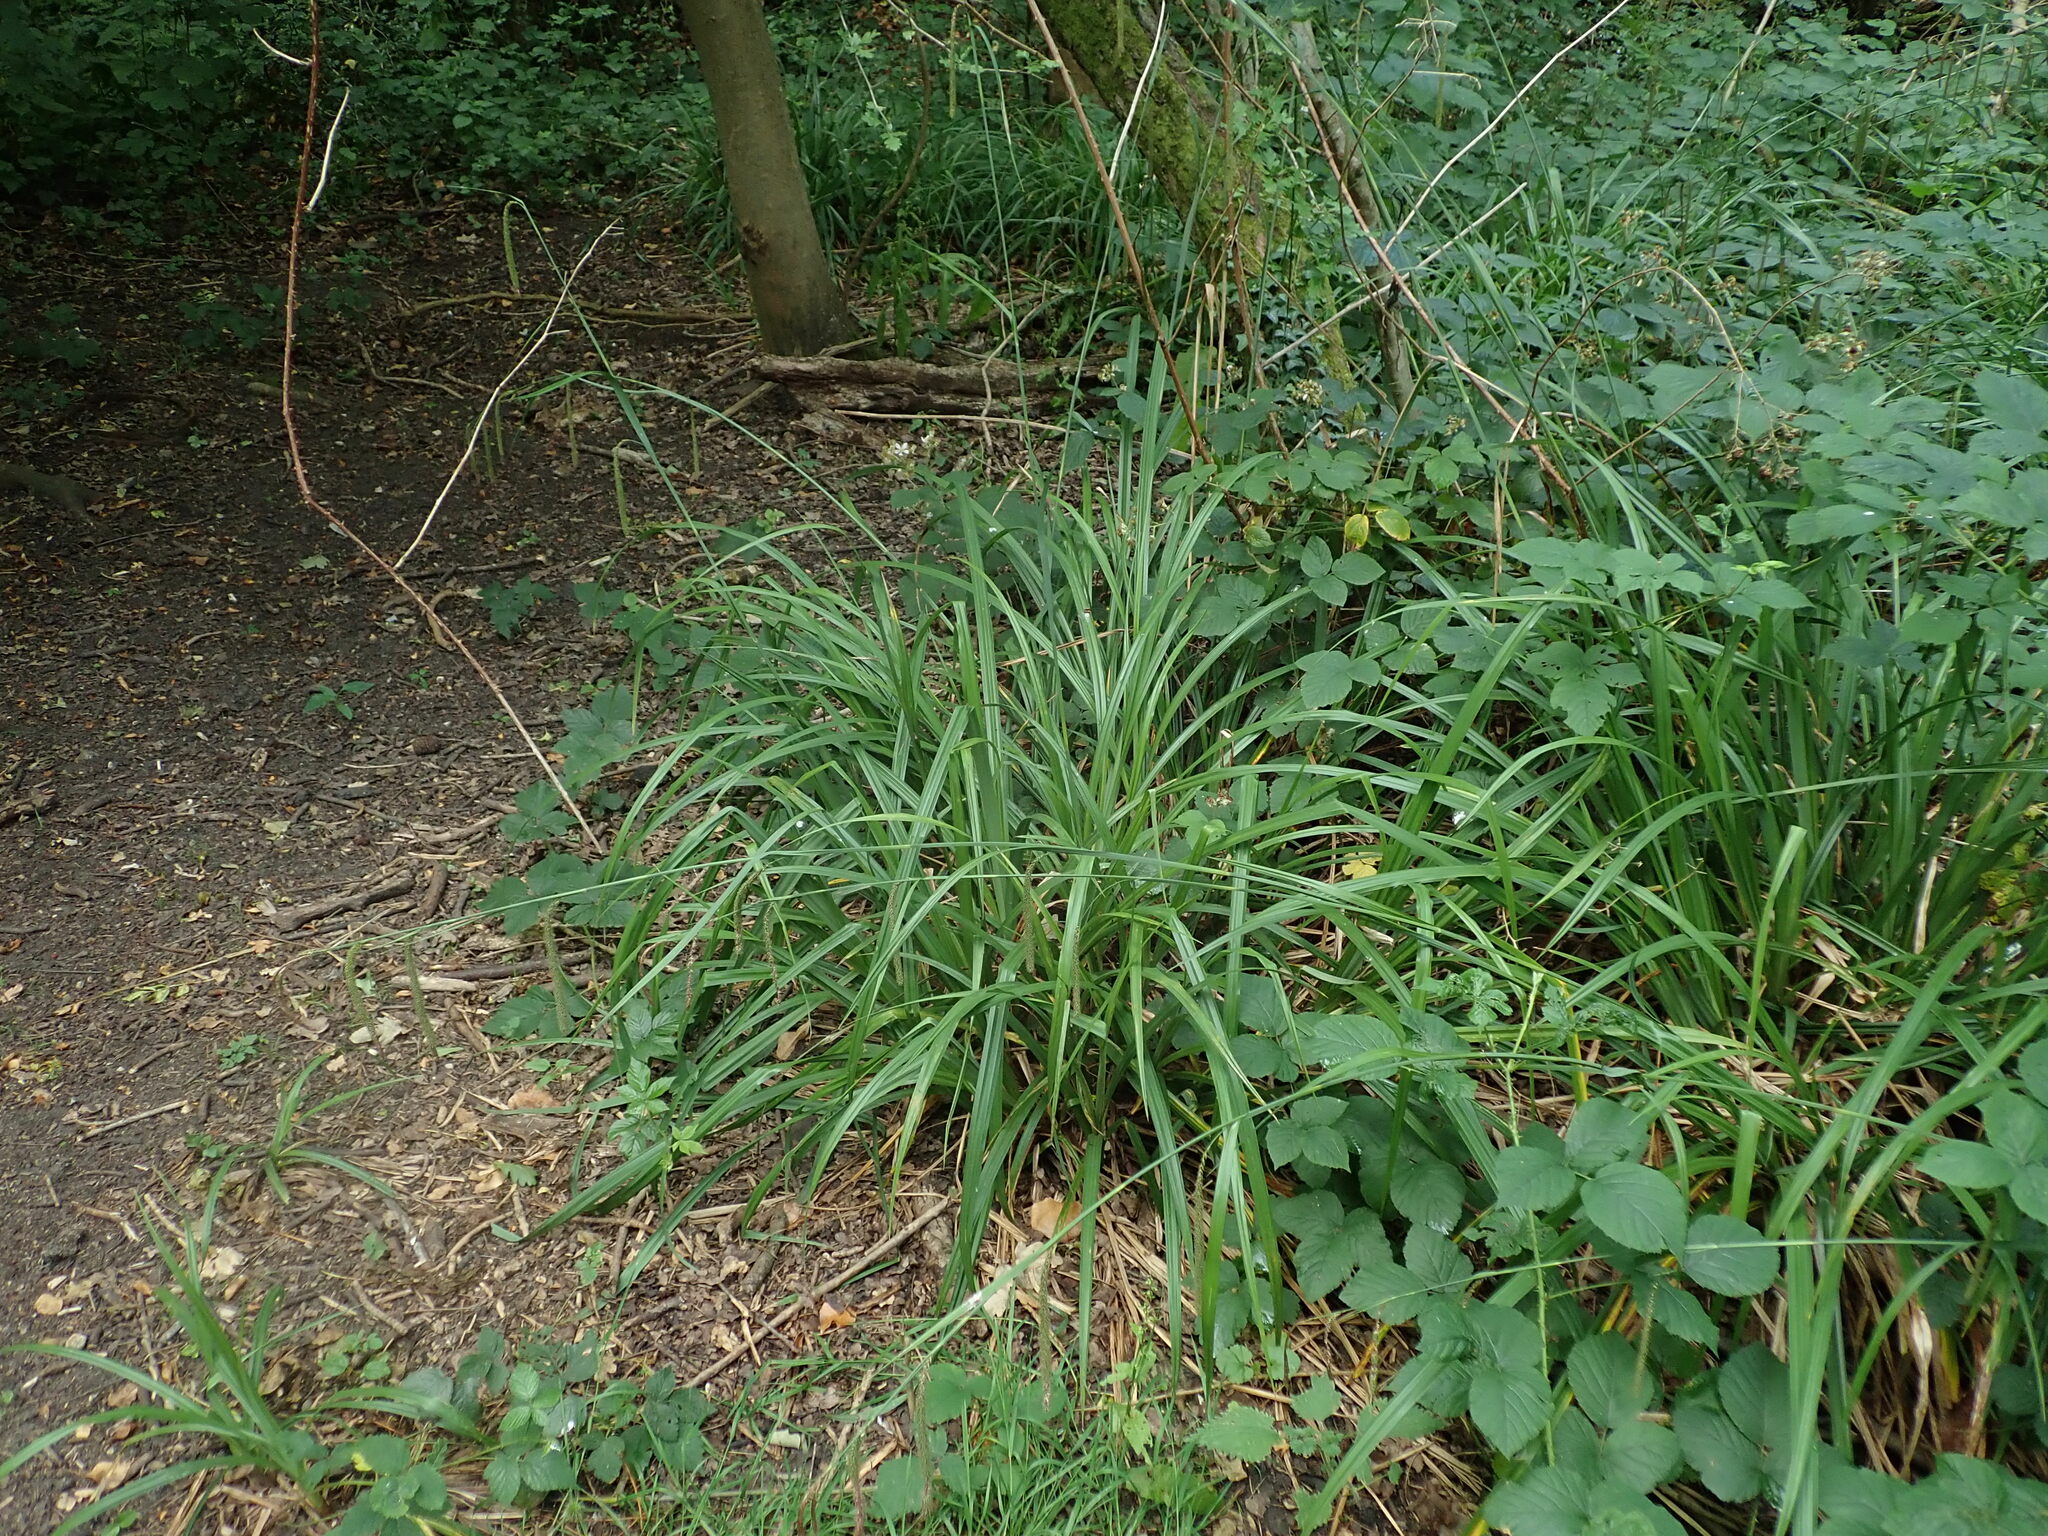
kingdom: Plantae
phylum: Tracheophyta
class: Liliopsida
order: Poales
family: Cyperaceae
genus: Carex
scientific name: Carex pendula
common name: Pendulous sedge
